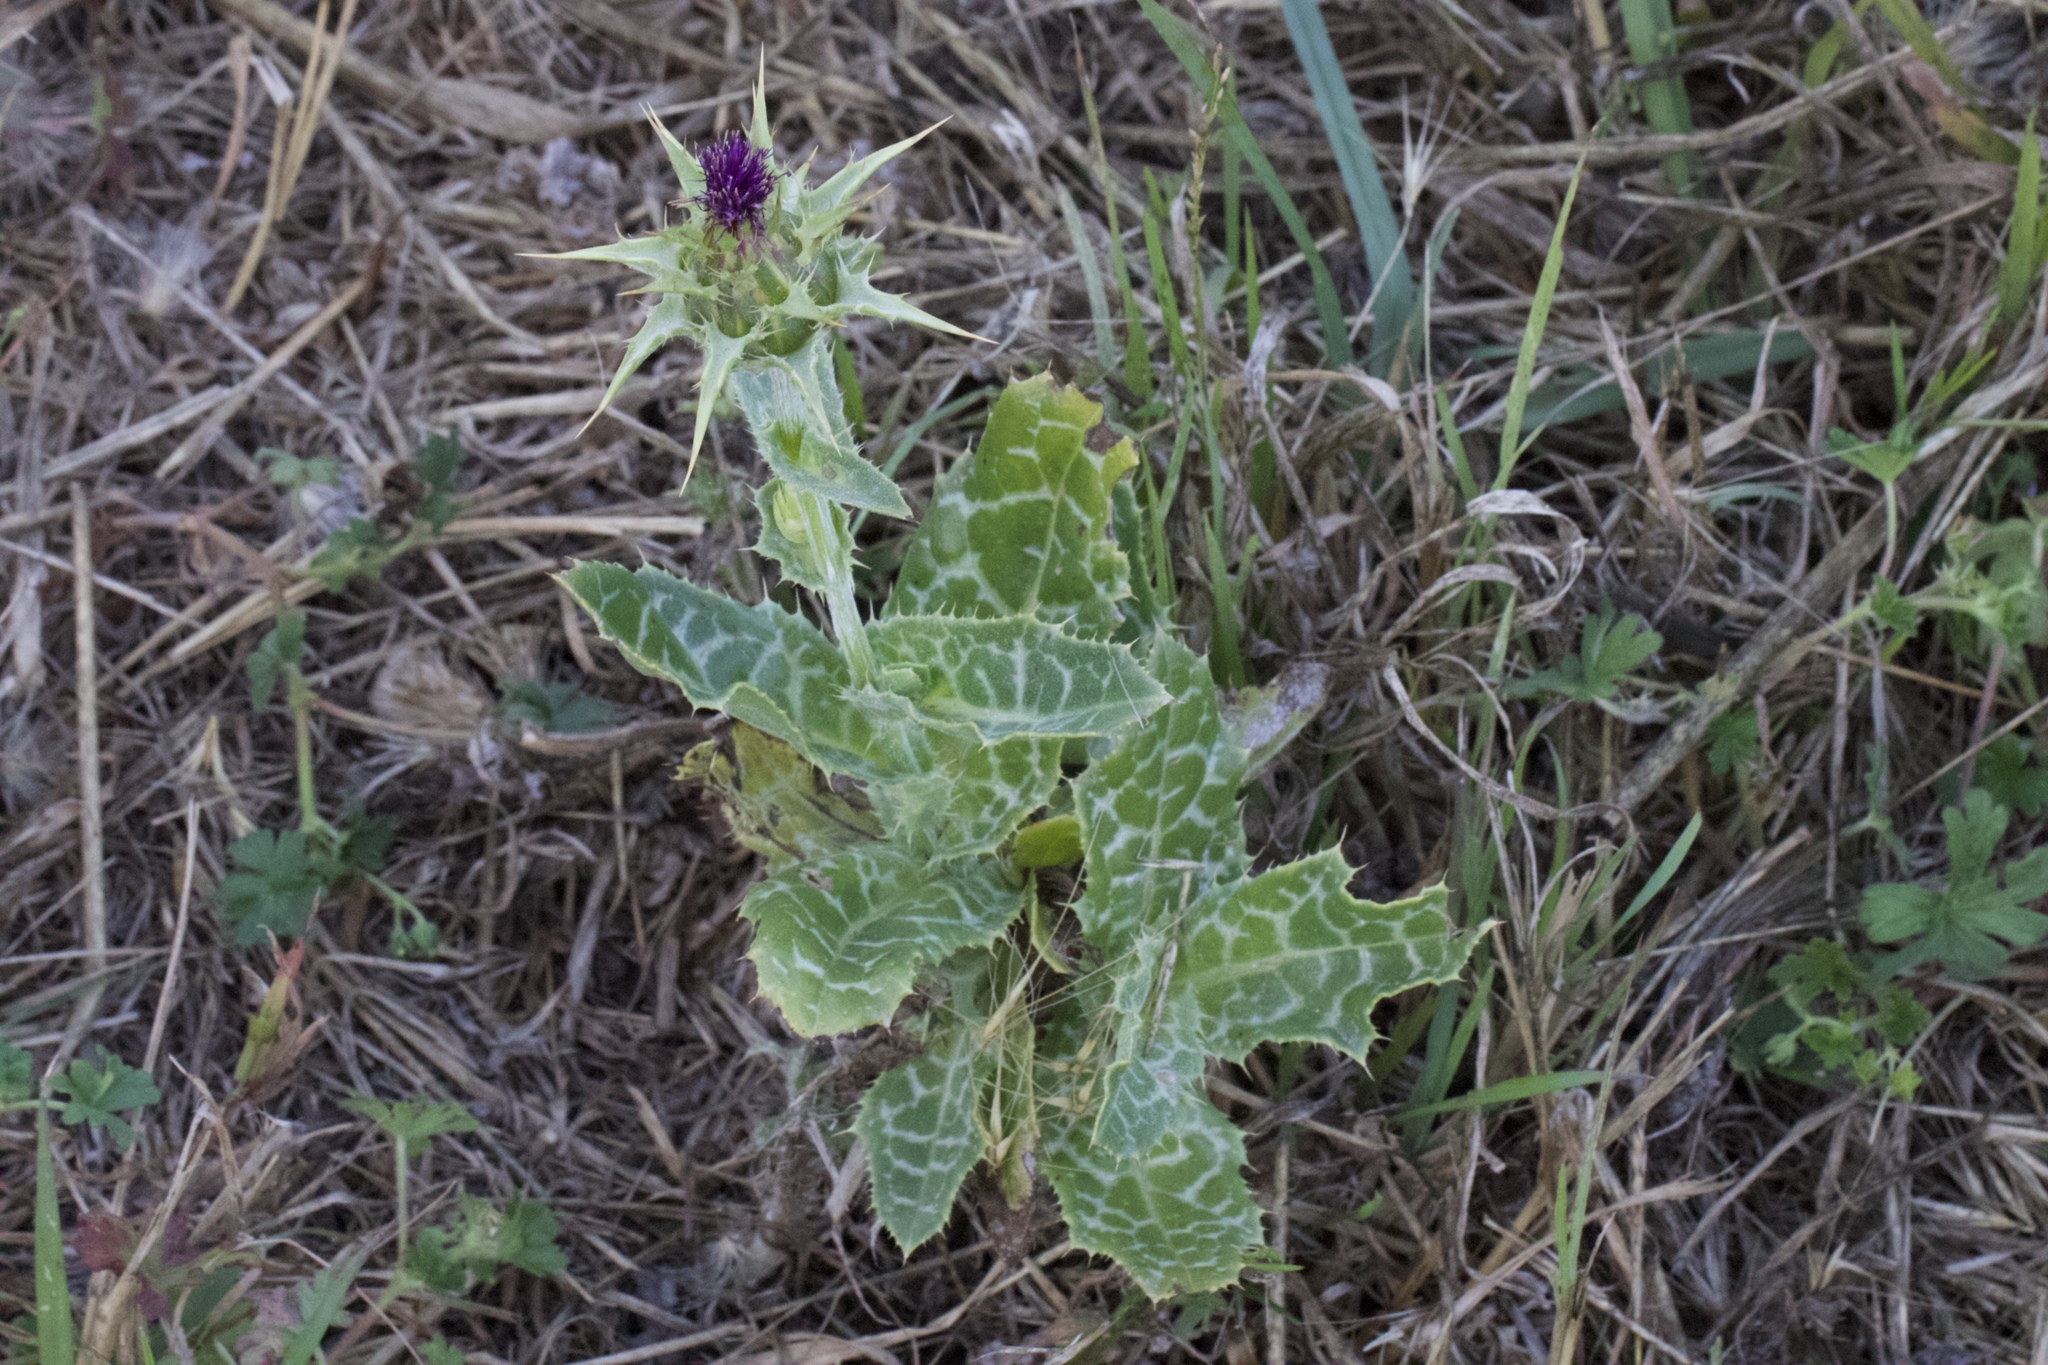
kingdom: Plantae
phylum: Tracheophyta
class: Magnoliopsida
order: Asterales
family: Asteraceae
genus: Silybum
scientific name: Silybum marianum
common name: Milk thistle
